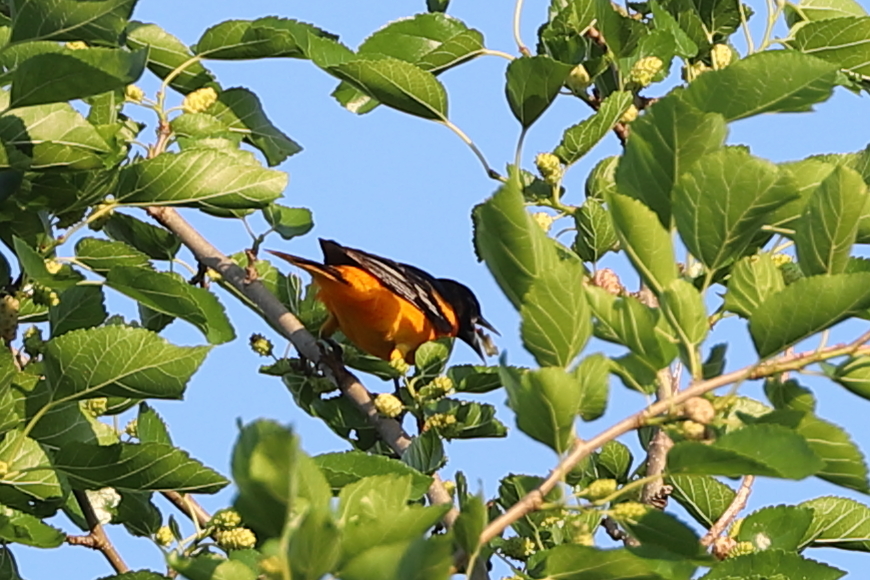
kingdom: Animalia
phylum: Chordata
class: Aves
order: Passeriformes
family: Icteridae
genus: Icterus
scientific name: Icterus galbula
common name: Baltimore oriole
